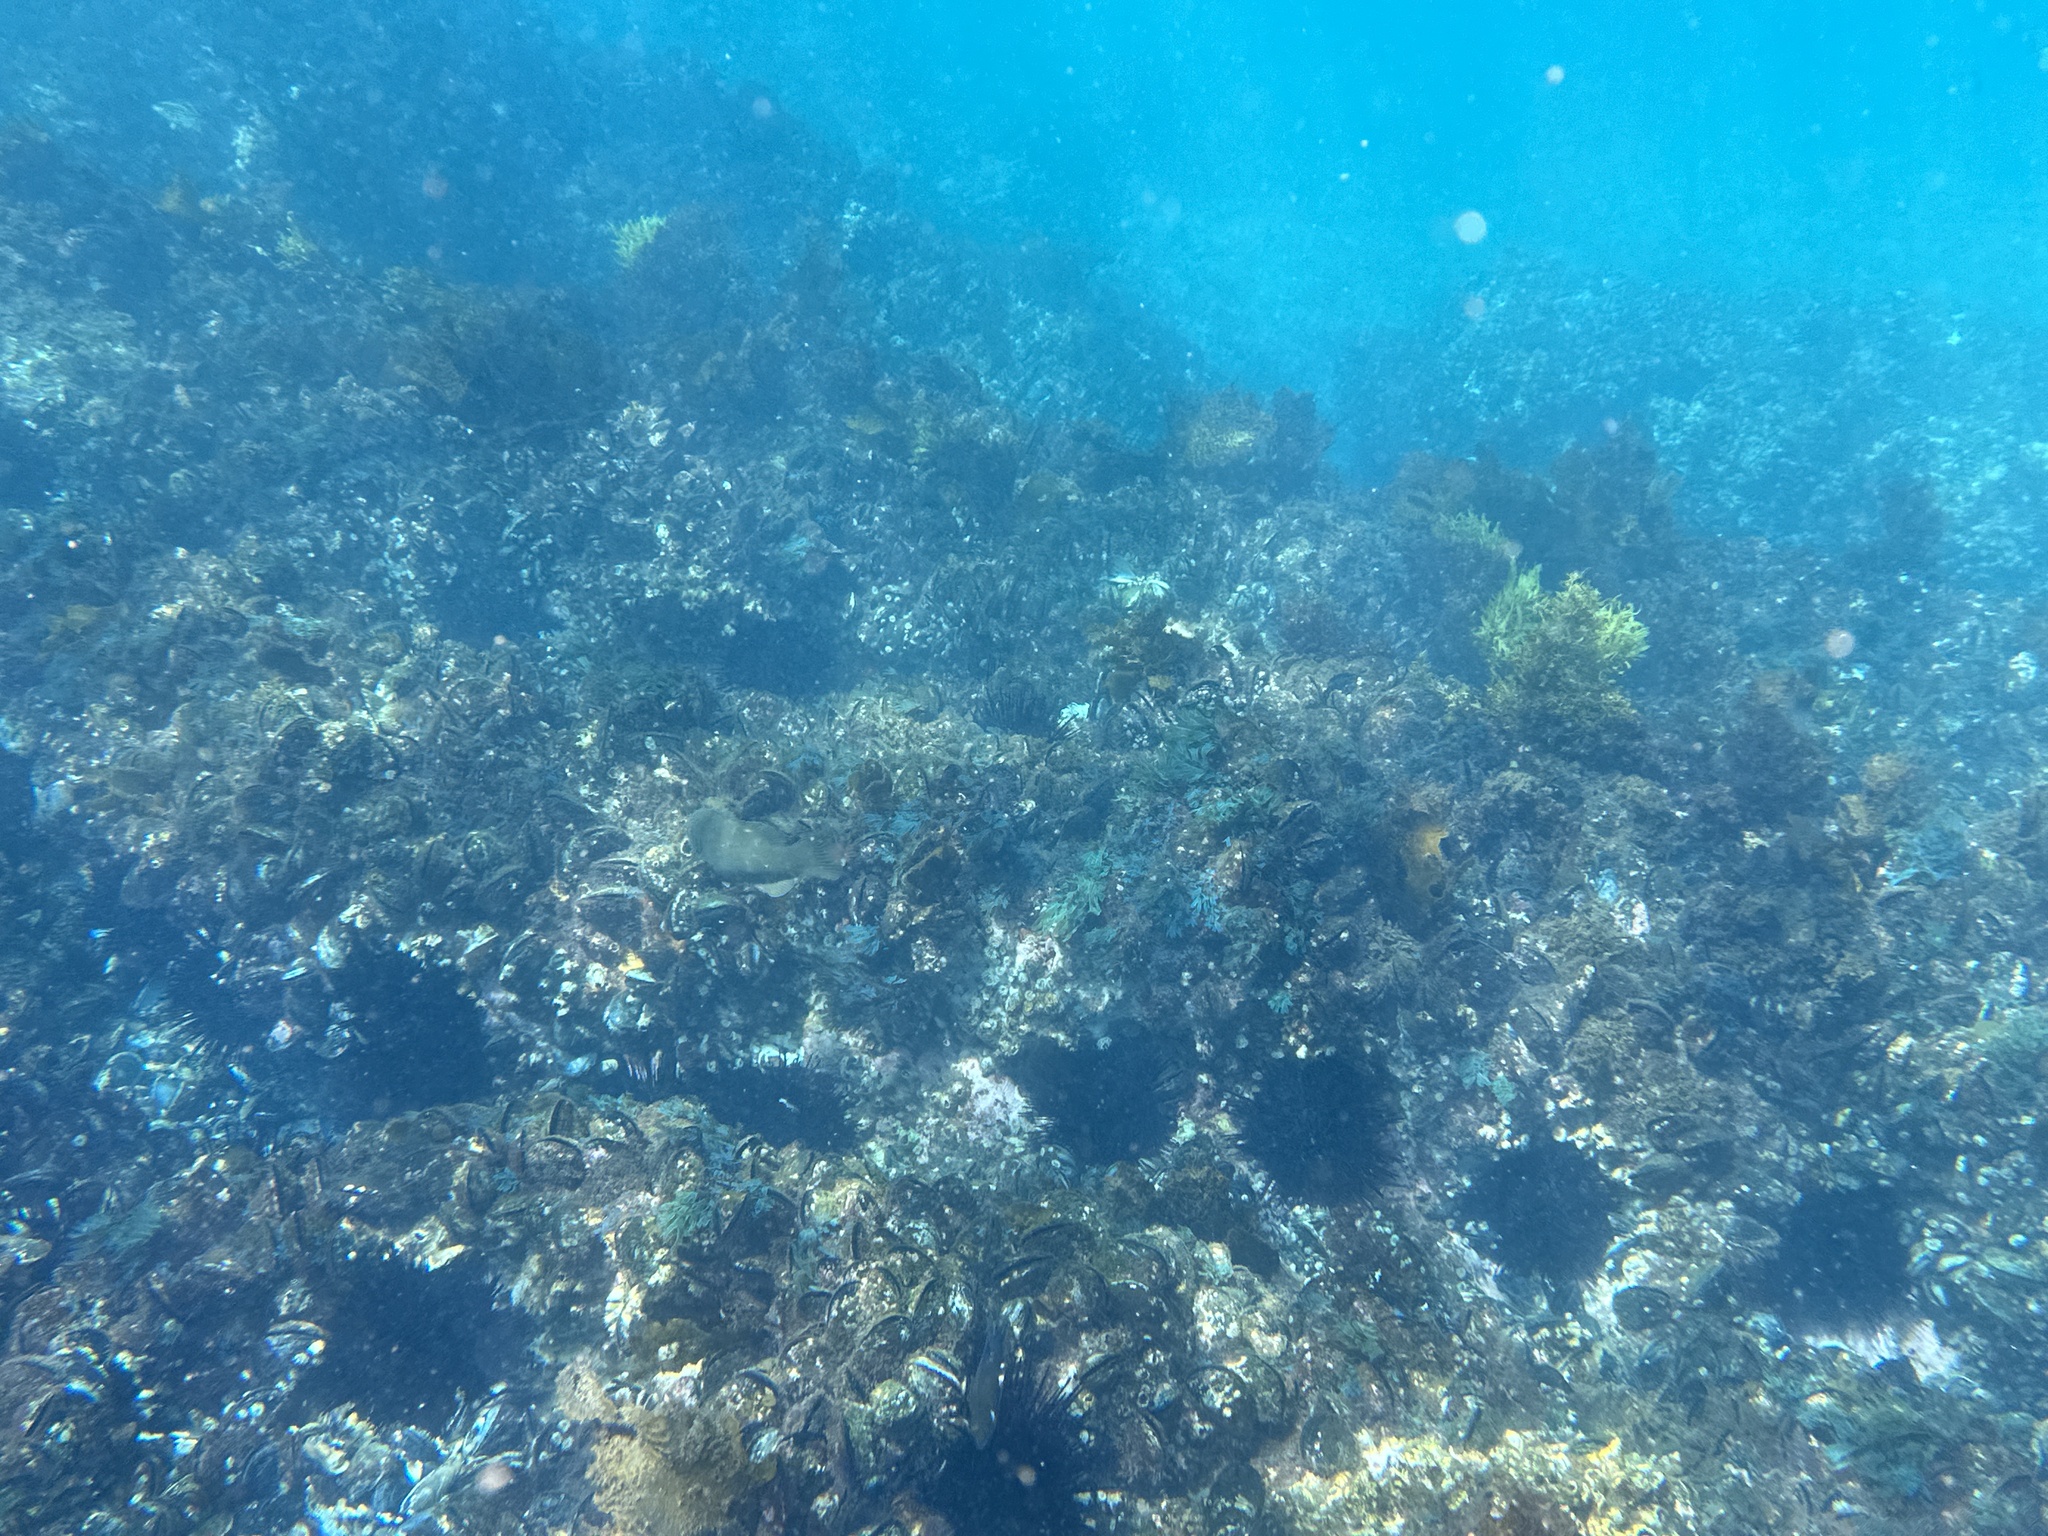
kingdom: Animalia
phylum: Echinodermata
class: Echinoidea
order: Diadematoida
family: Diadematidae
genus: Centrostephanus
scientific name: Centrostephanus rodgersii
